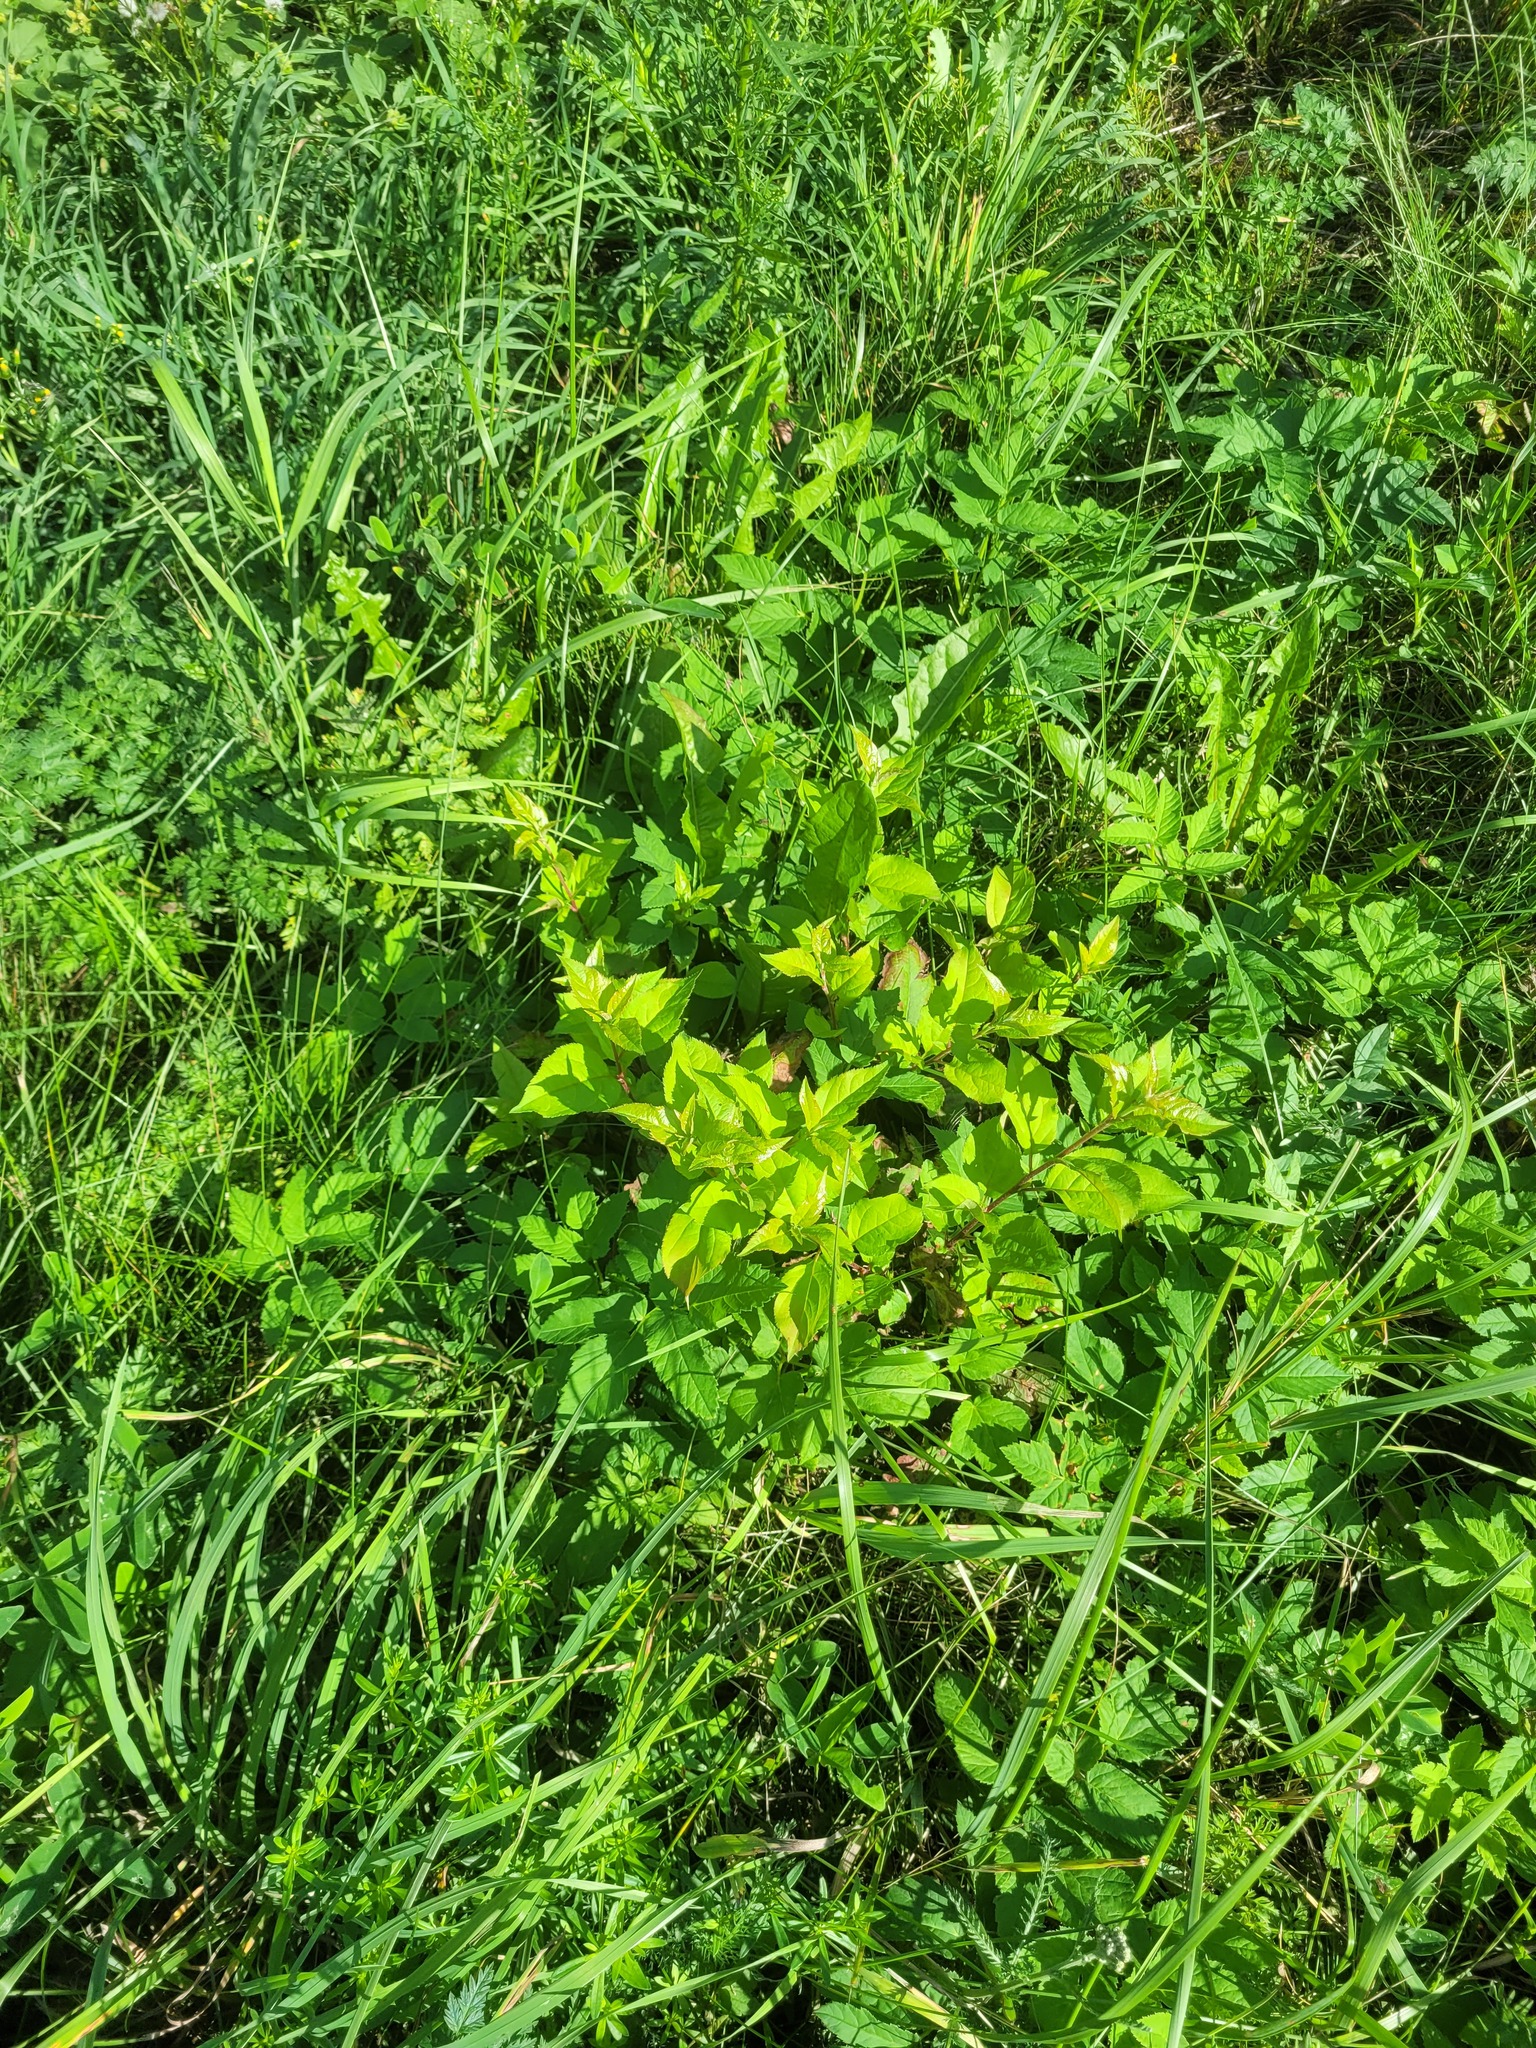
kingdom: Plantae
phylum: Tracheophyta
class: Magnoliopsida
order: Rosales
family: Rosaceae
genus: Malus
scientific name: Malus domestica
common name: Apple
